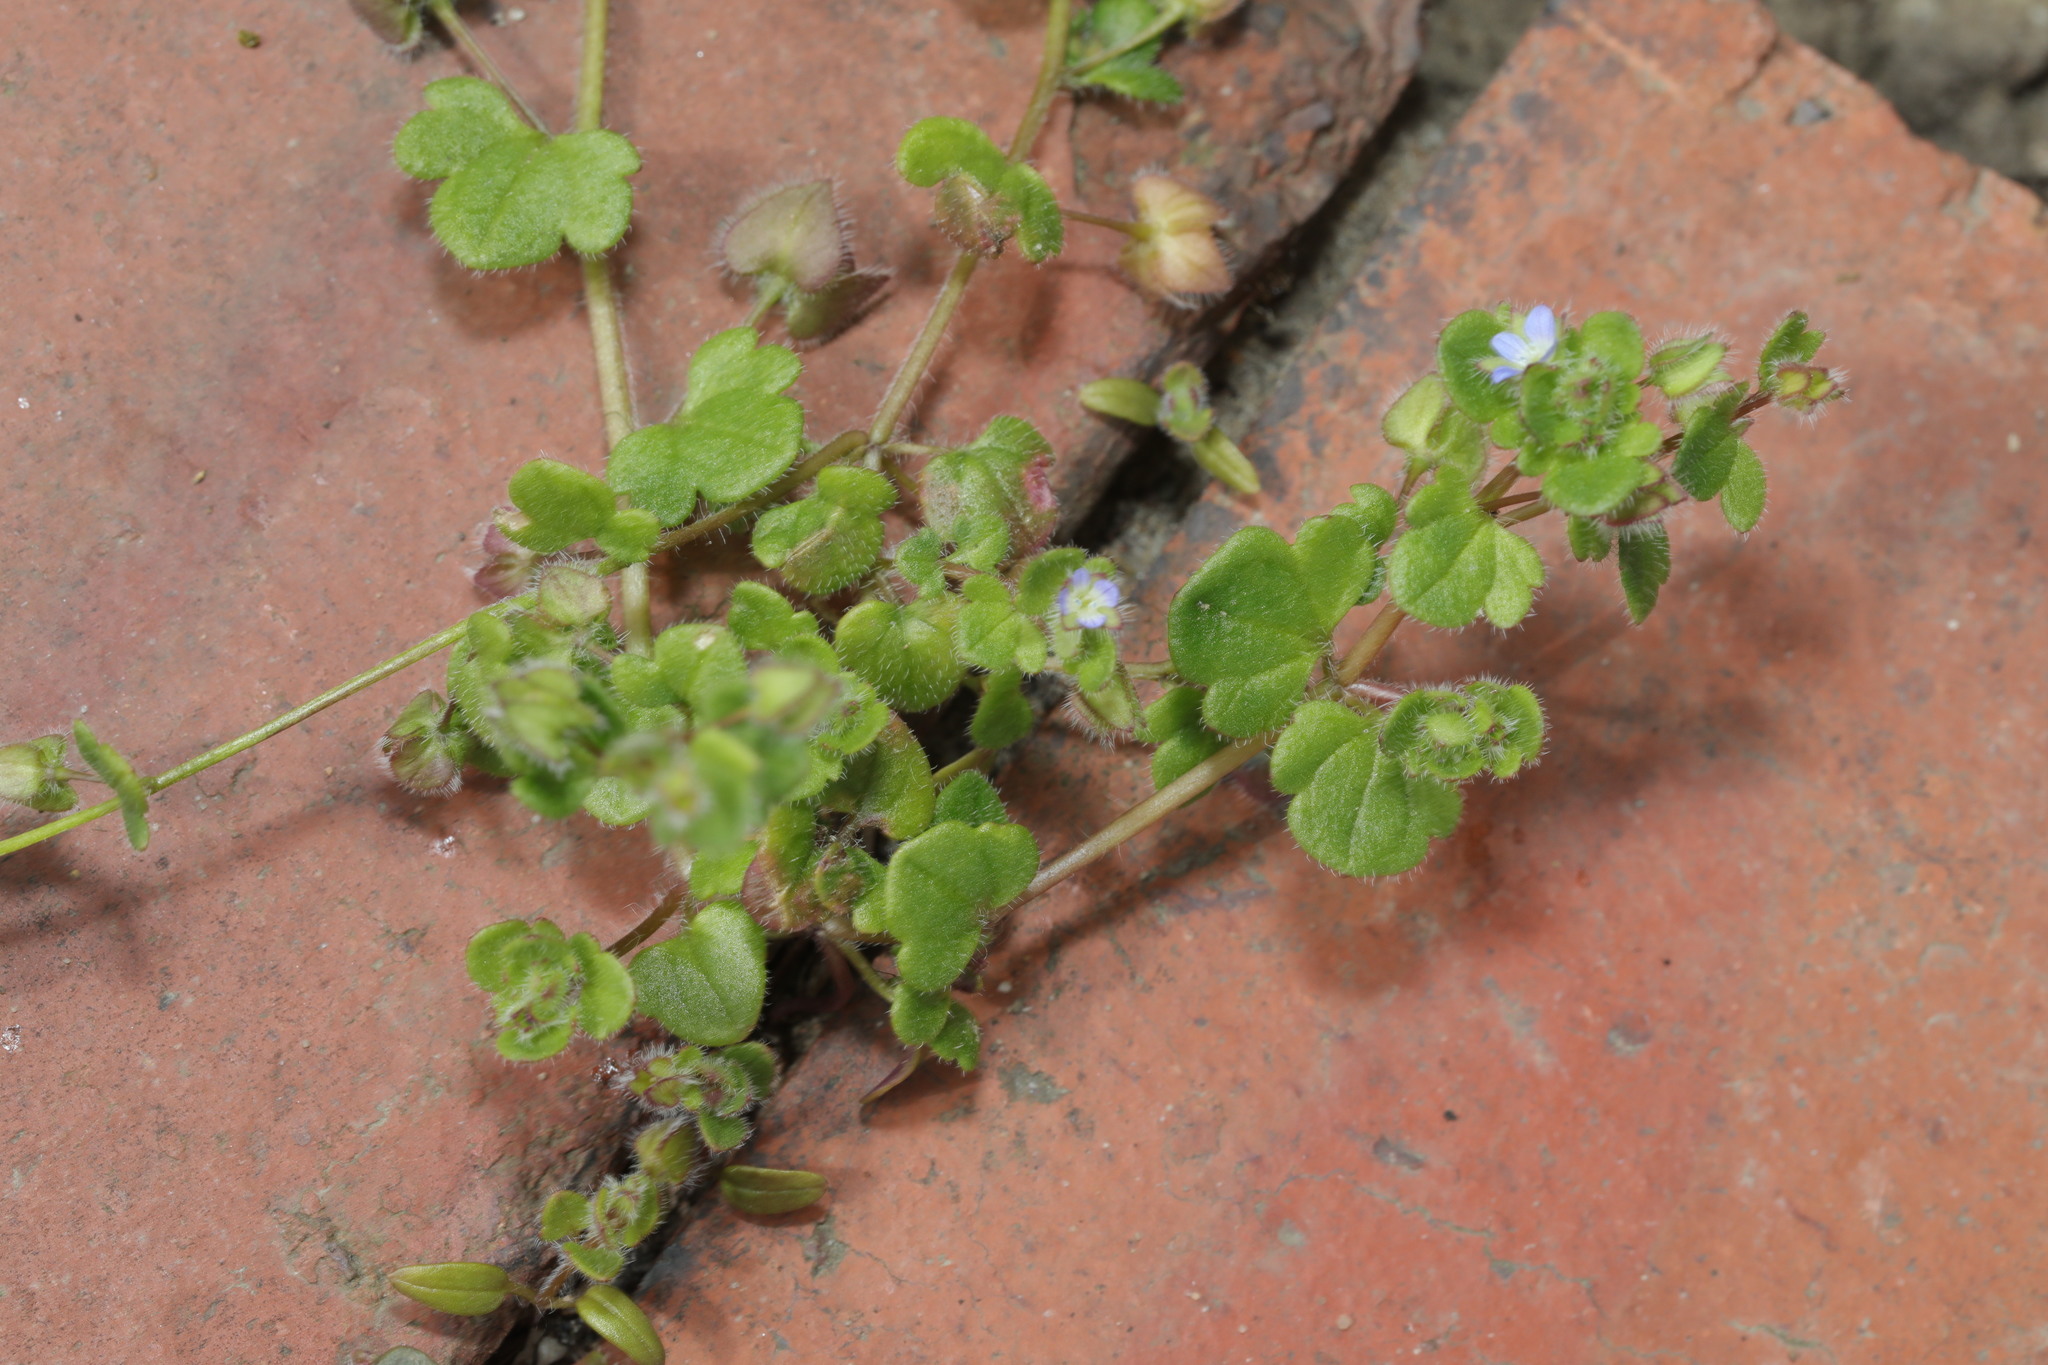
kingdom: Plantae
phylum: Tracheophyta
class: Magnoliopsida
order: Lamiales
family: Plantaginaceae
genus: Veronica
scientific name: Veronica hederifolia
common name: Ivy-leaved speedwell
